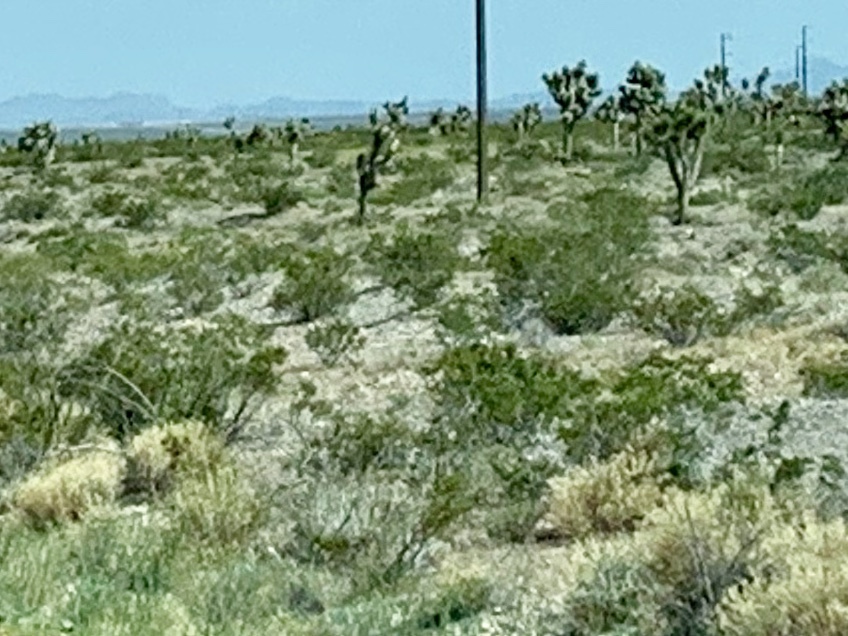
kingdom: Plantae
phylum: Tracheophyta
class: Magnoliopsida
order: Zygophyllales
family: Zygophyllaceae
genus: Larrea
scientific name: Larrea tridentata
